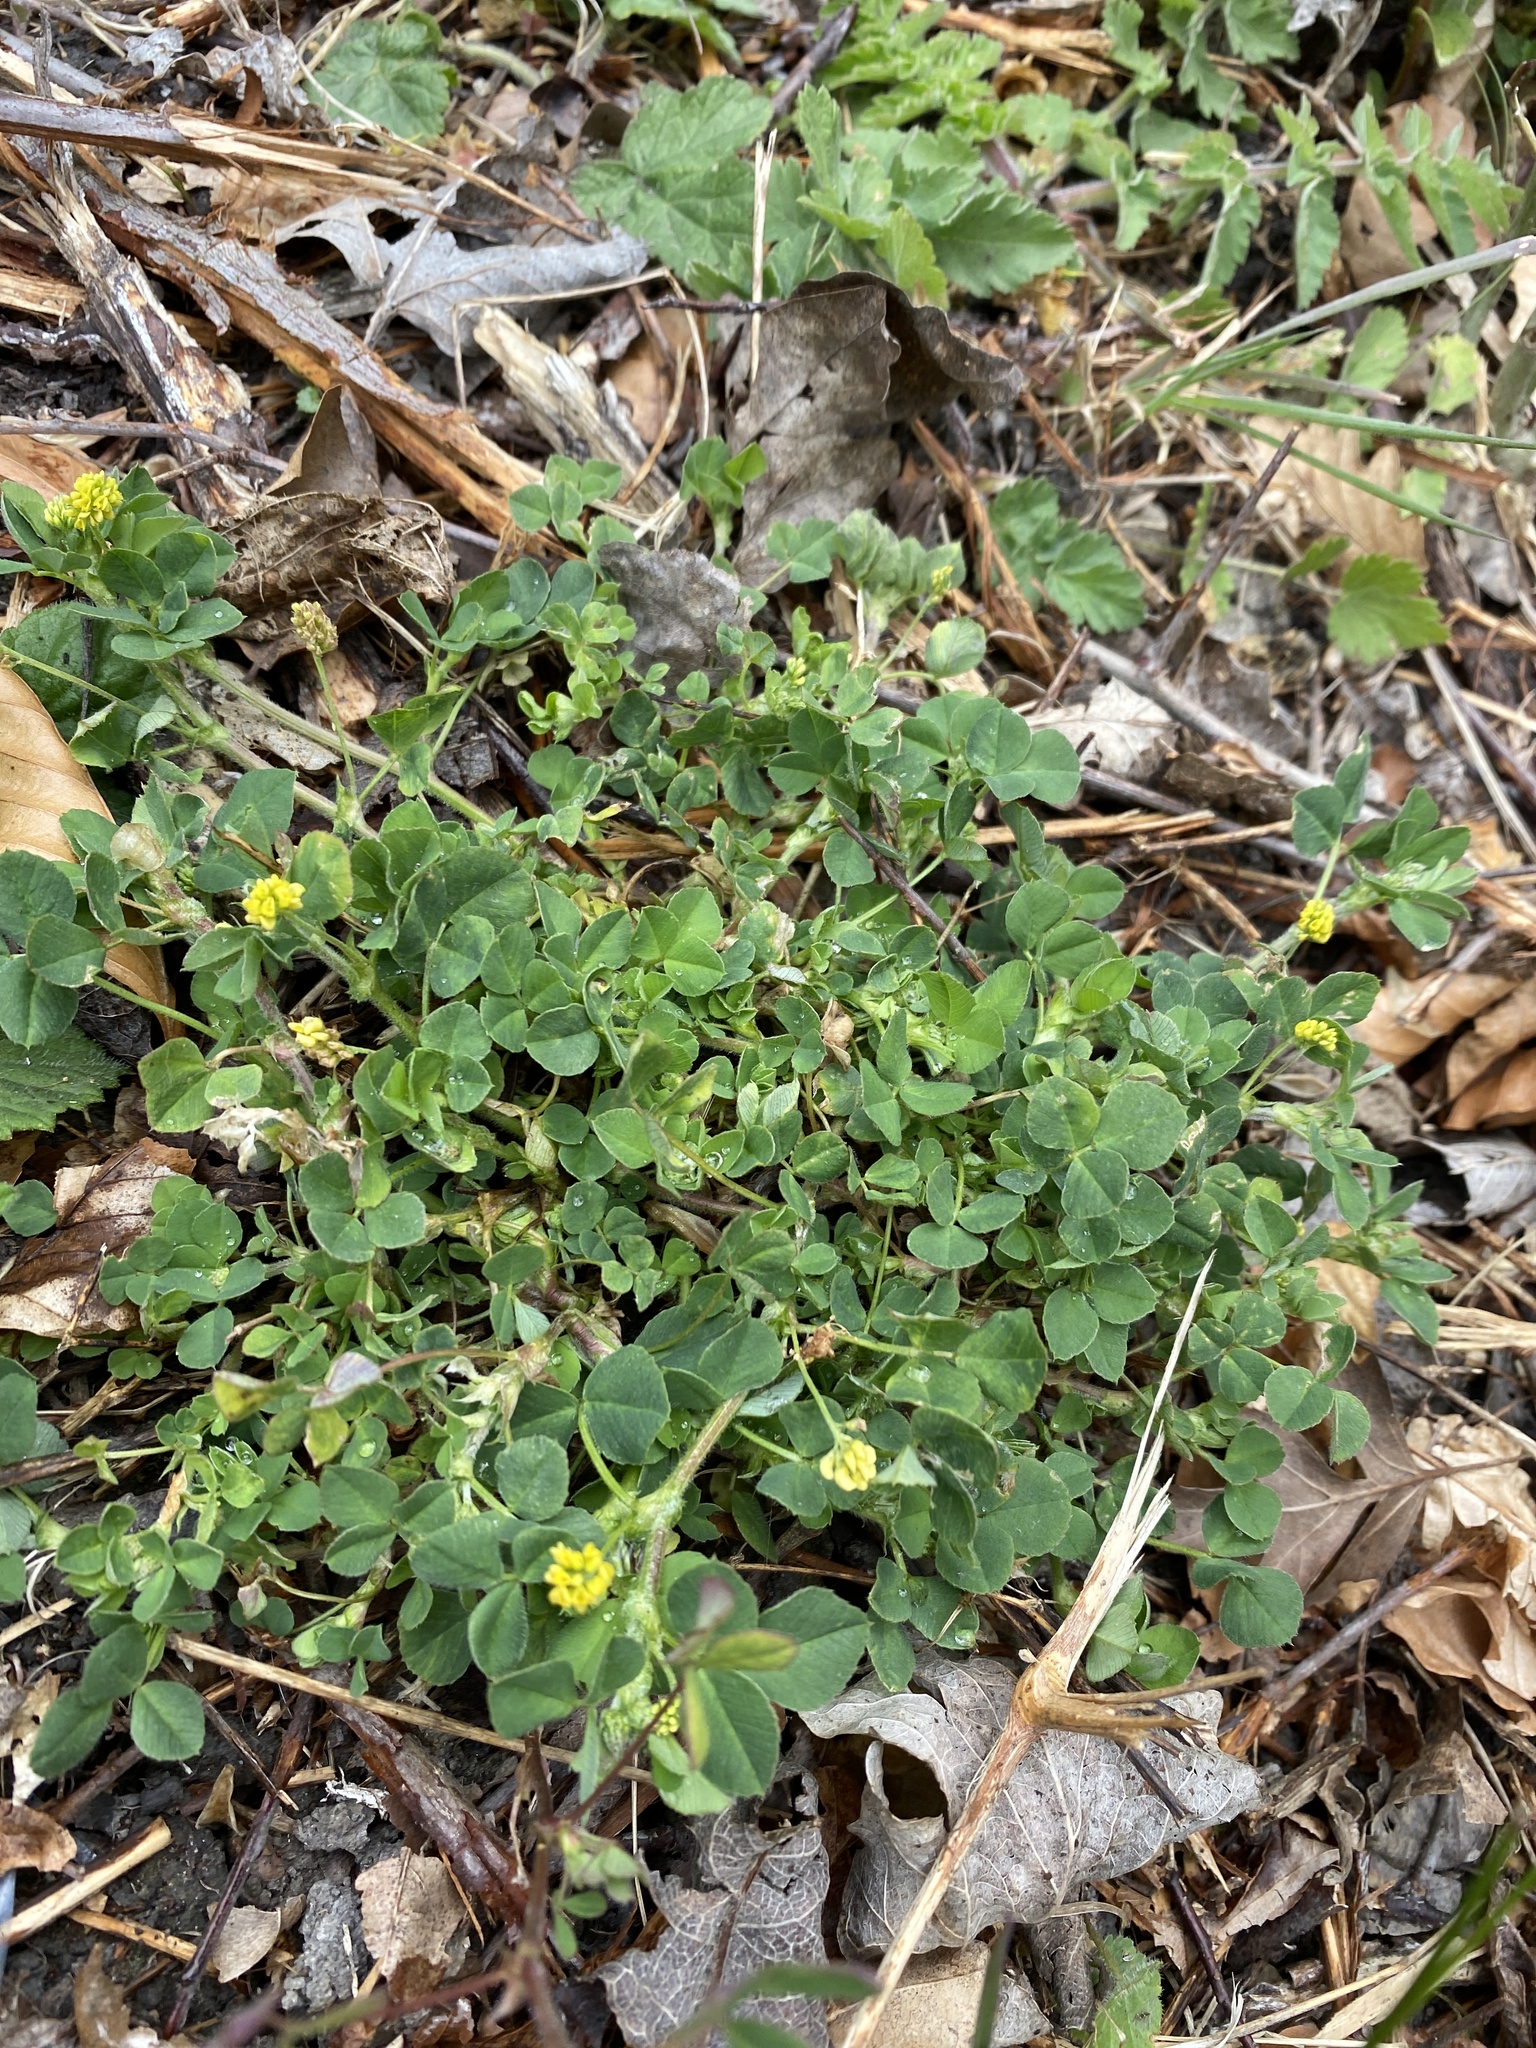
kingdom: Plantae
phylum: Tracheophyta
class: Magnoliopsida
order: Fabales
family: Fabaceae
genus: Medicago
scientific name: Medicago lupulina
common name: Black medick
